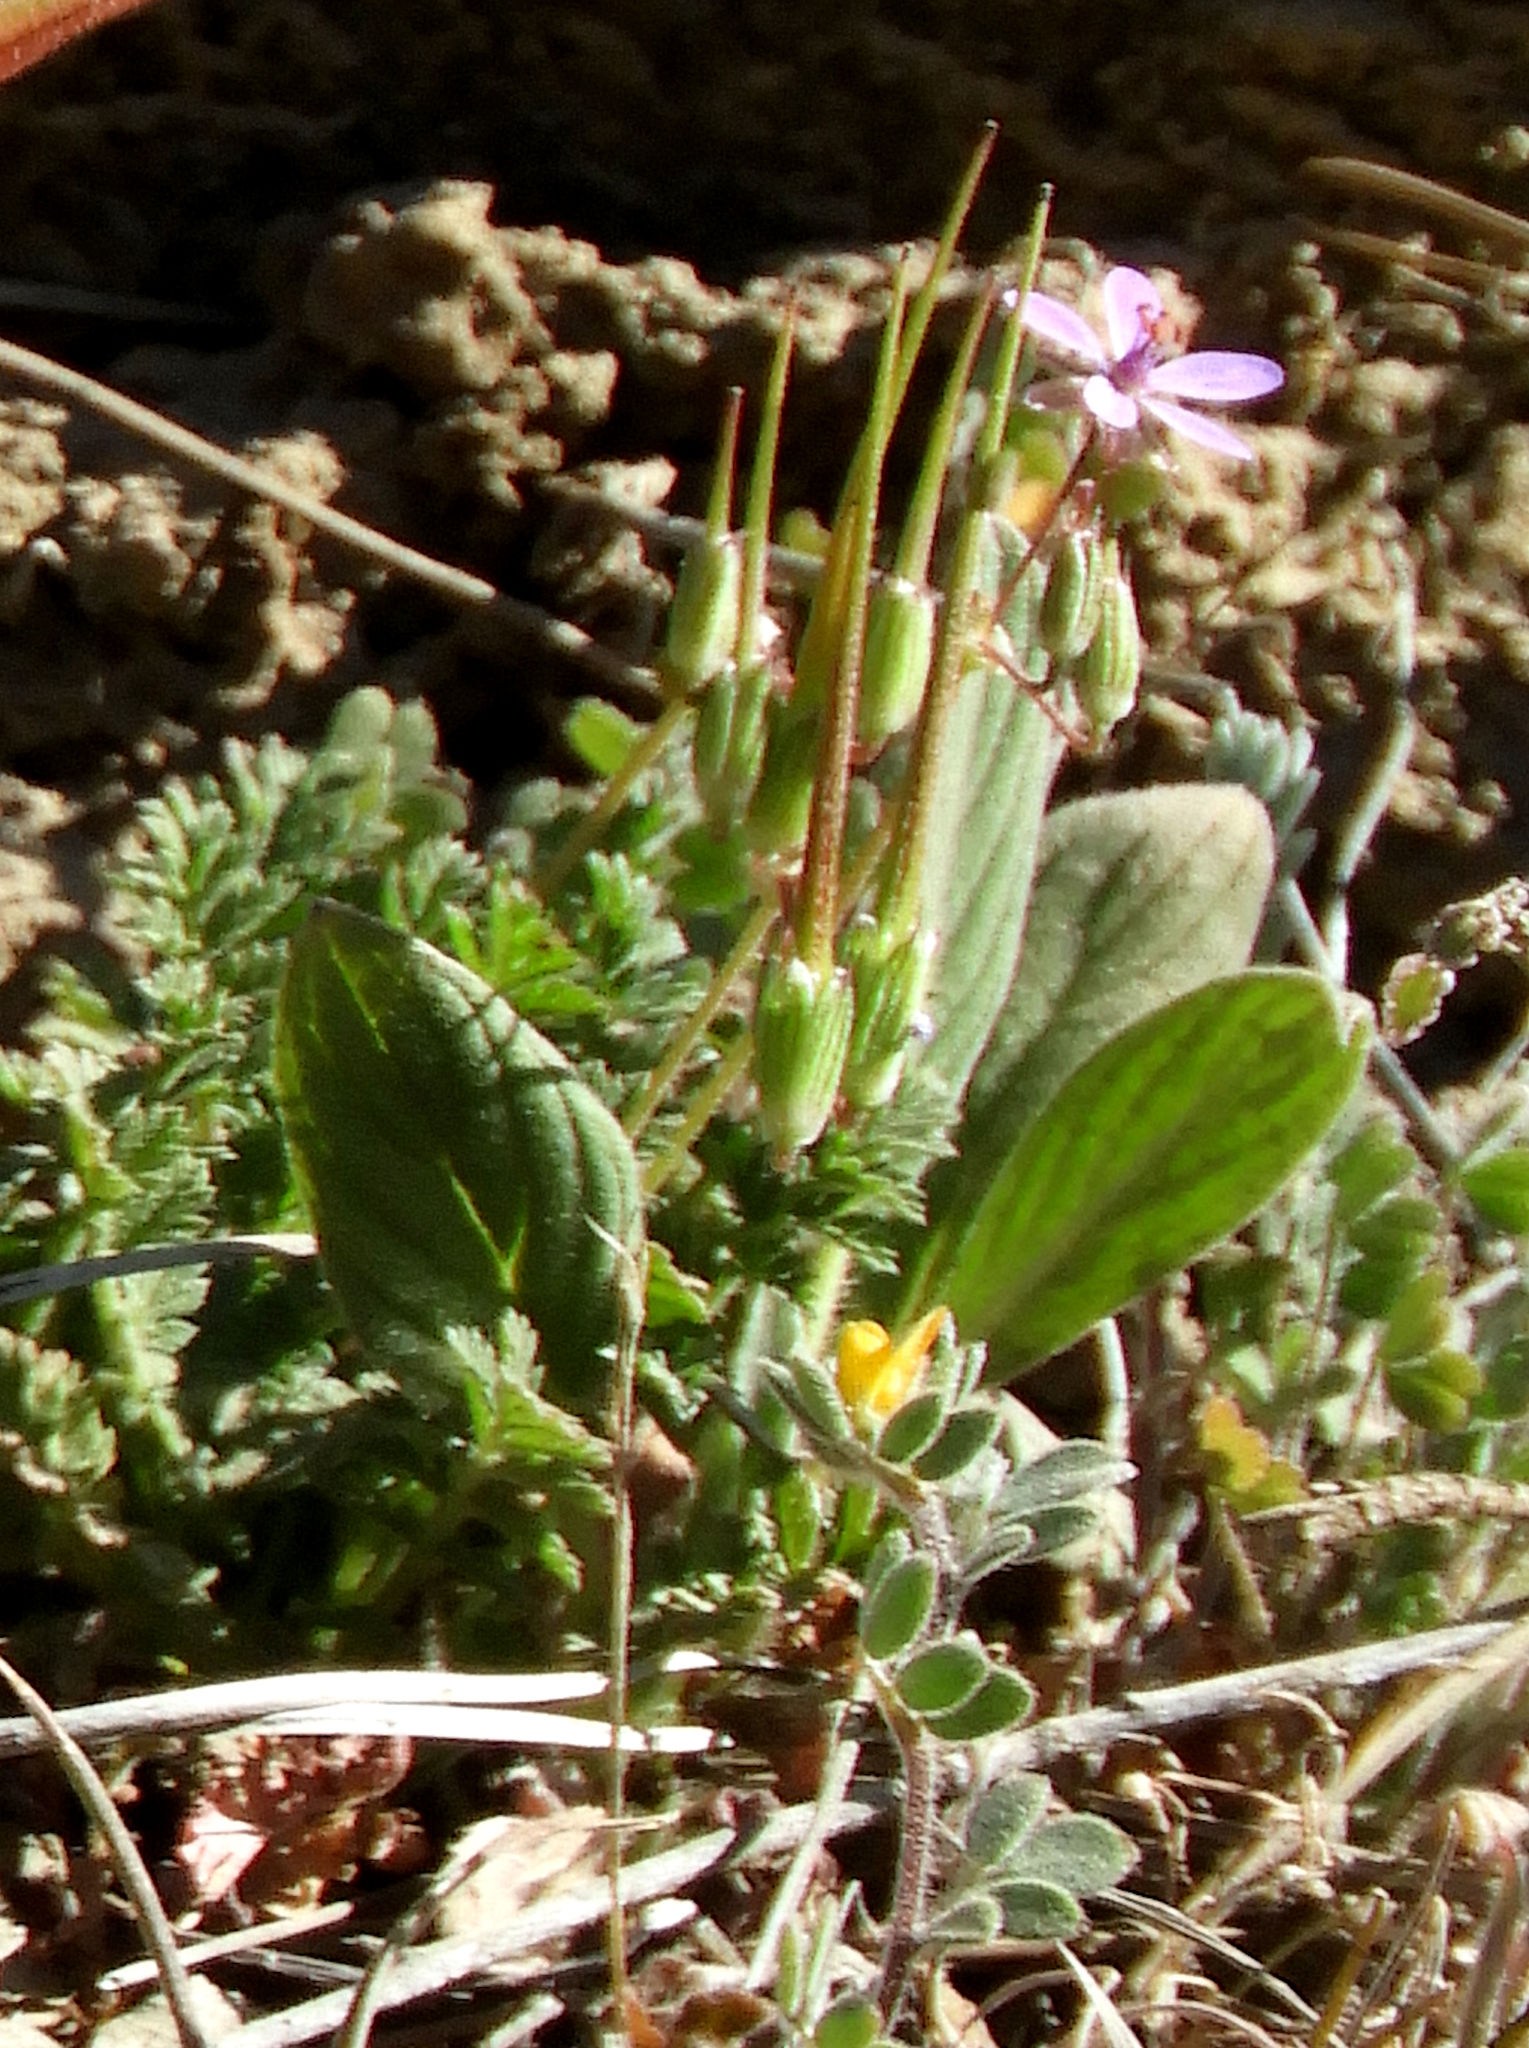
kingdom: Plantae
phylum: Tracheophyta
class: Magnoliopsida
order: Geraniales
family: Geraniaceae
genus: Erodium
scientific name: Erodium moschatum
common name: Musk stork's-bill
